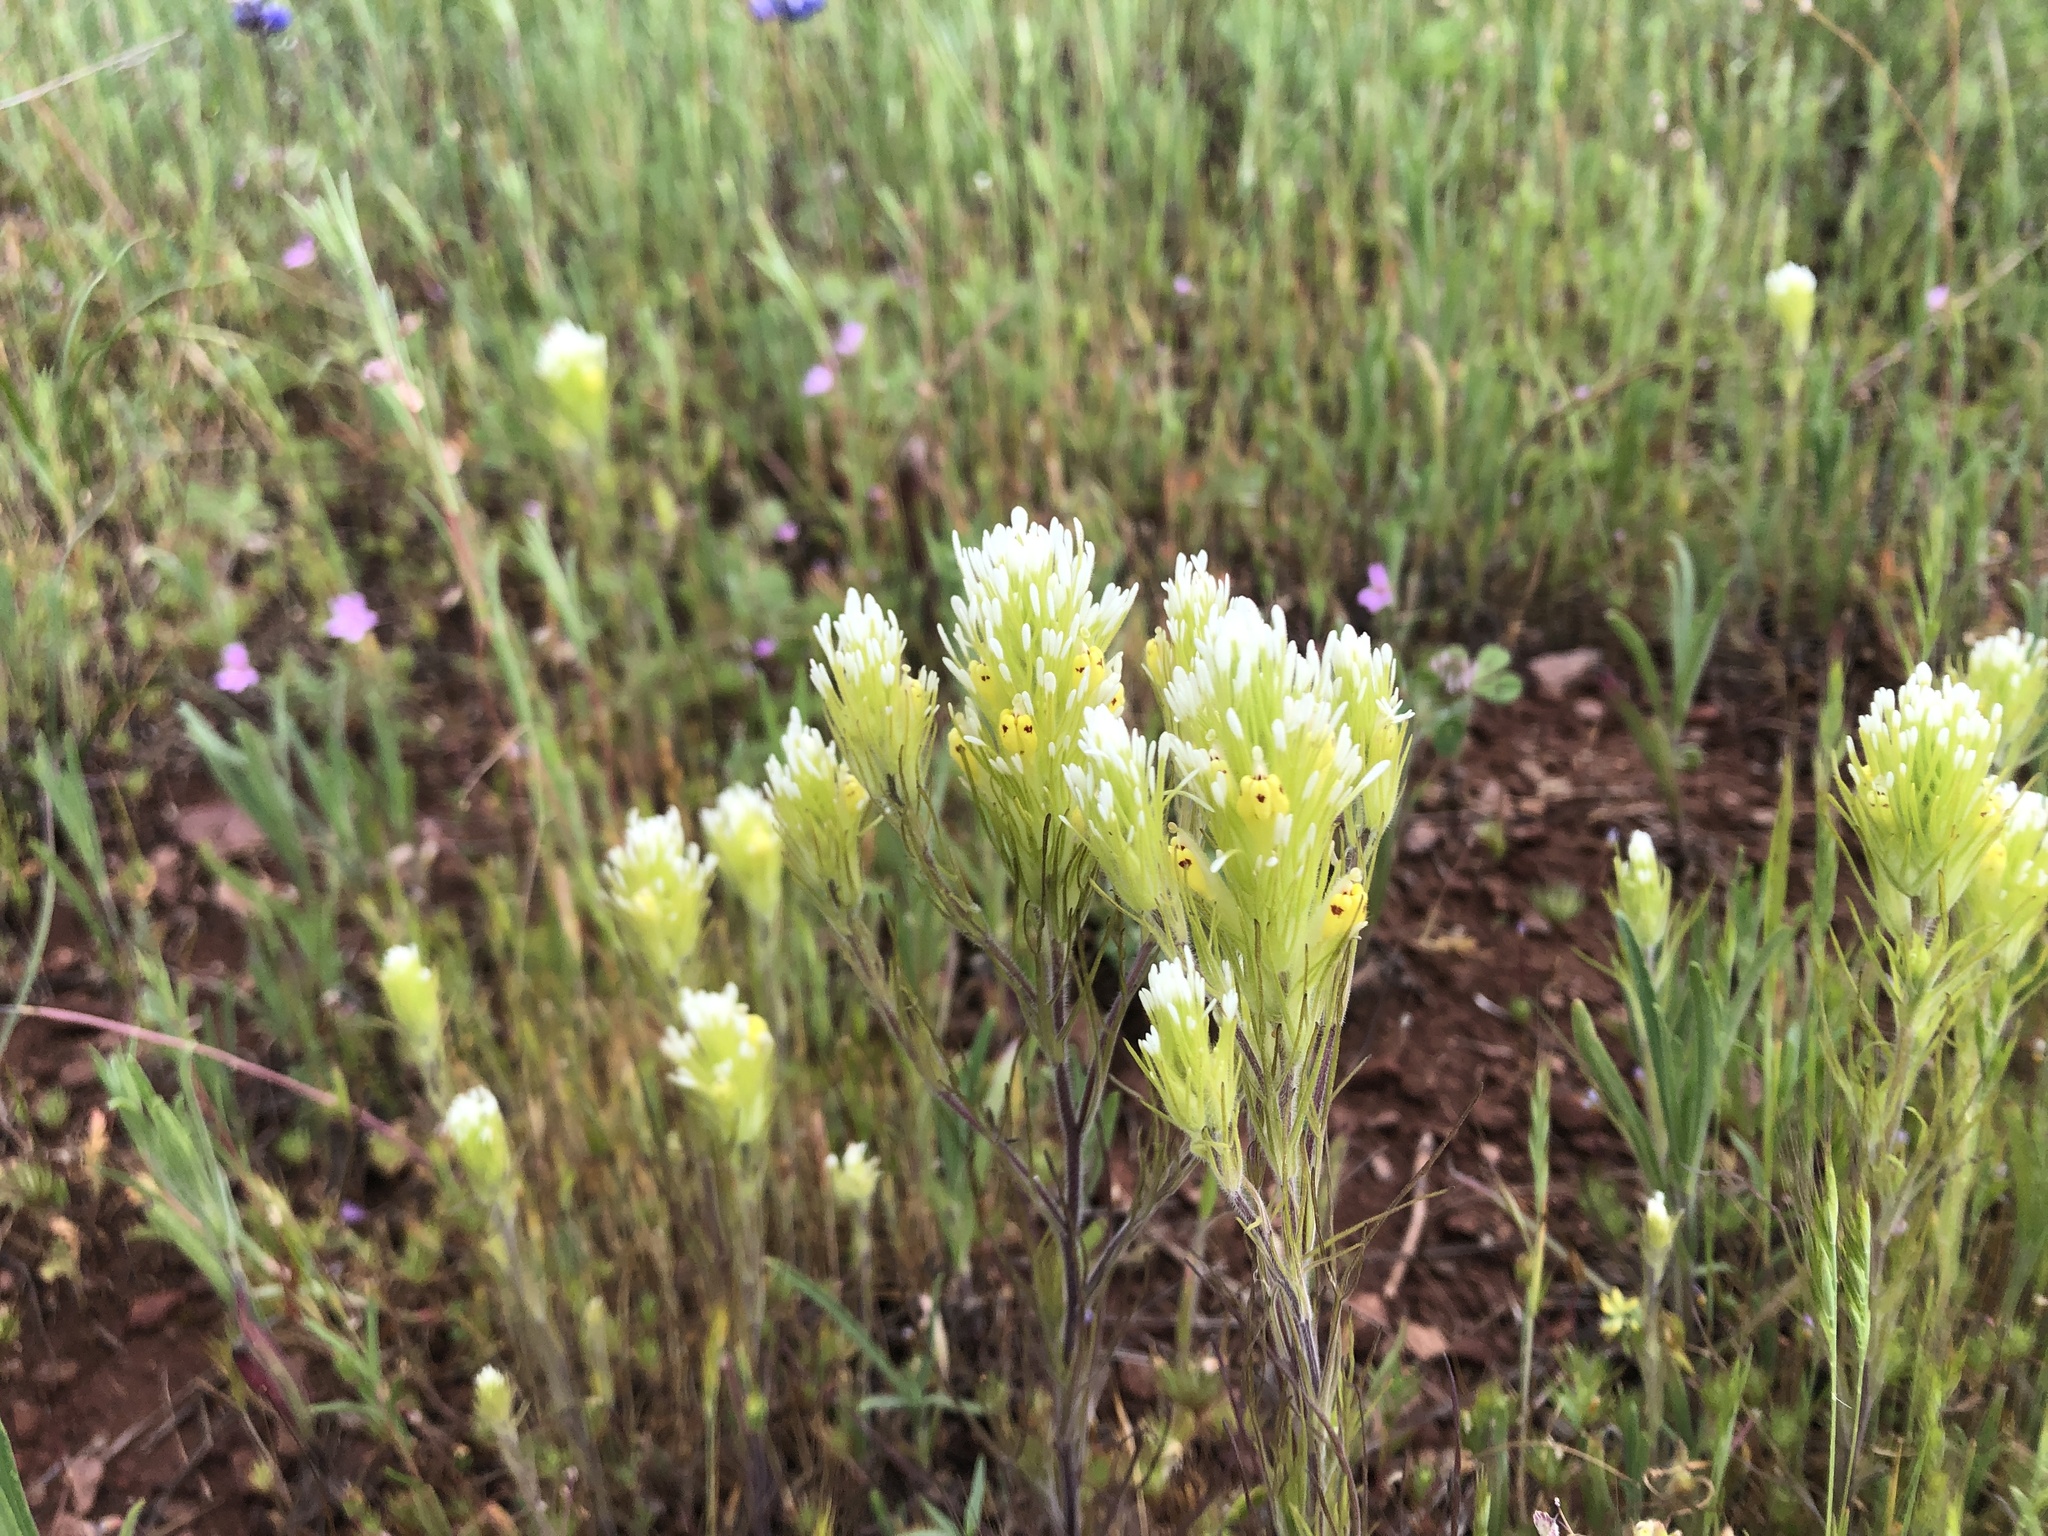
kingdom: Plantae
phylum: Tracheophyta
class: Magnoliopsida
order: Lamiales
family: Orobanchaceae
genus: Castilleja
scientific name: Castilleja lineariloba
